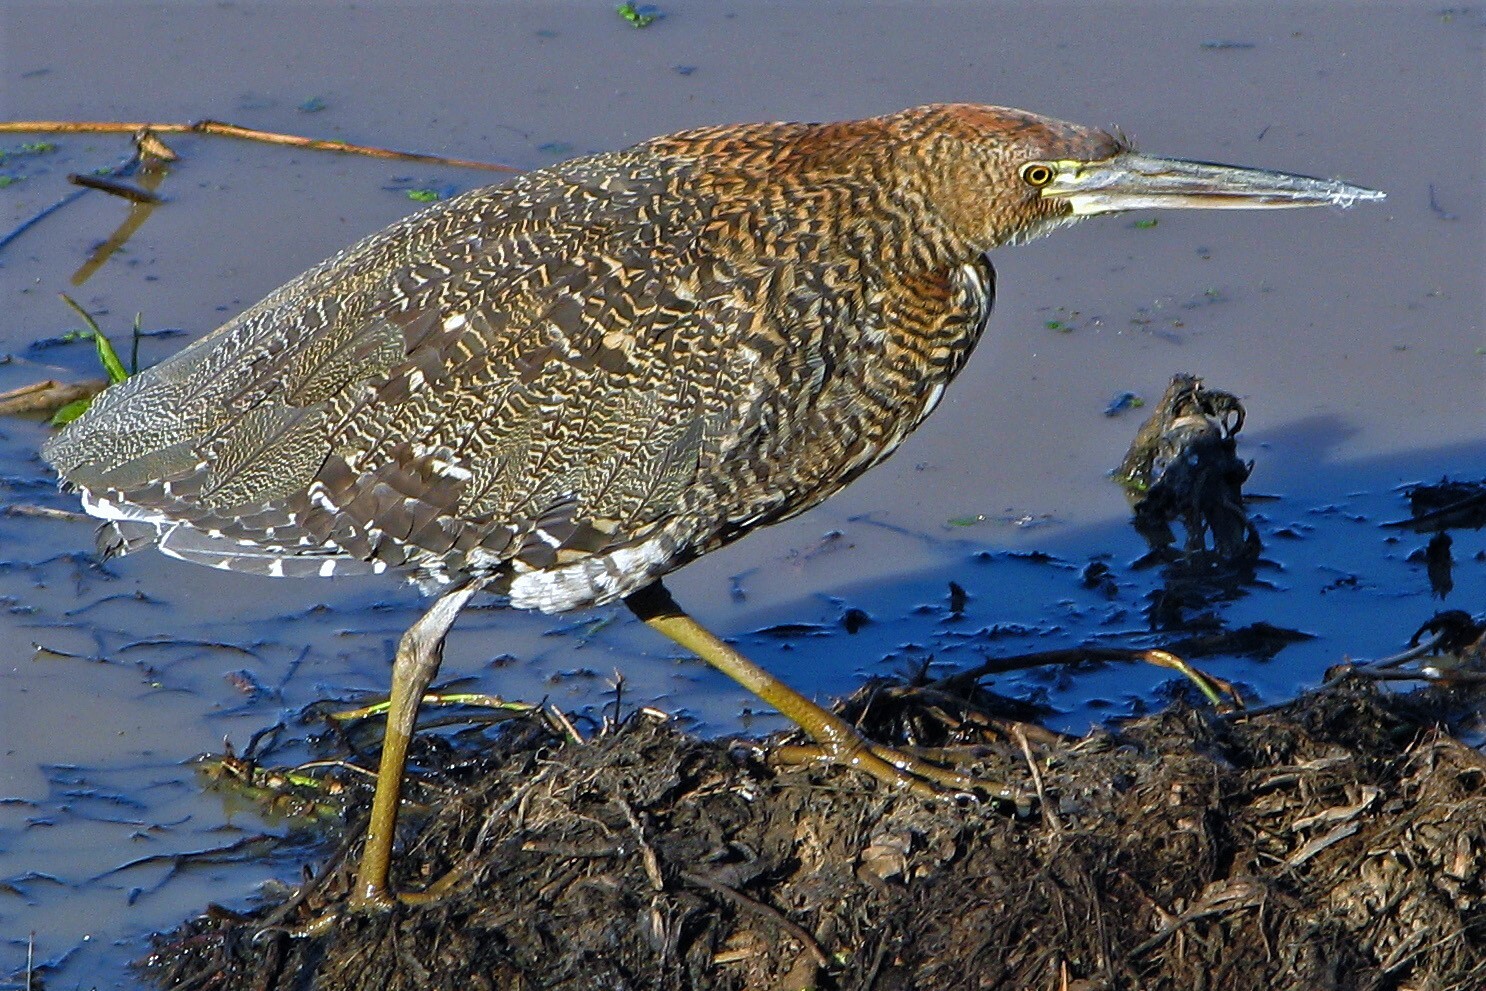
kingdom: Animalia
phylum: Chordata
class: Aves
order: Pelecaniformes
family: Ardeidae
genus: Tigrisoma
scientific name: Tigrisoma lineatum
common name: Rufescent tiger-heron
